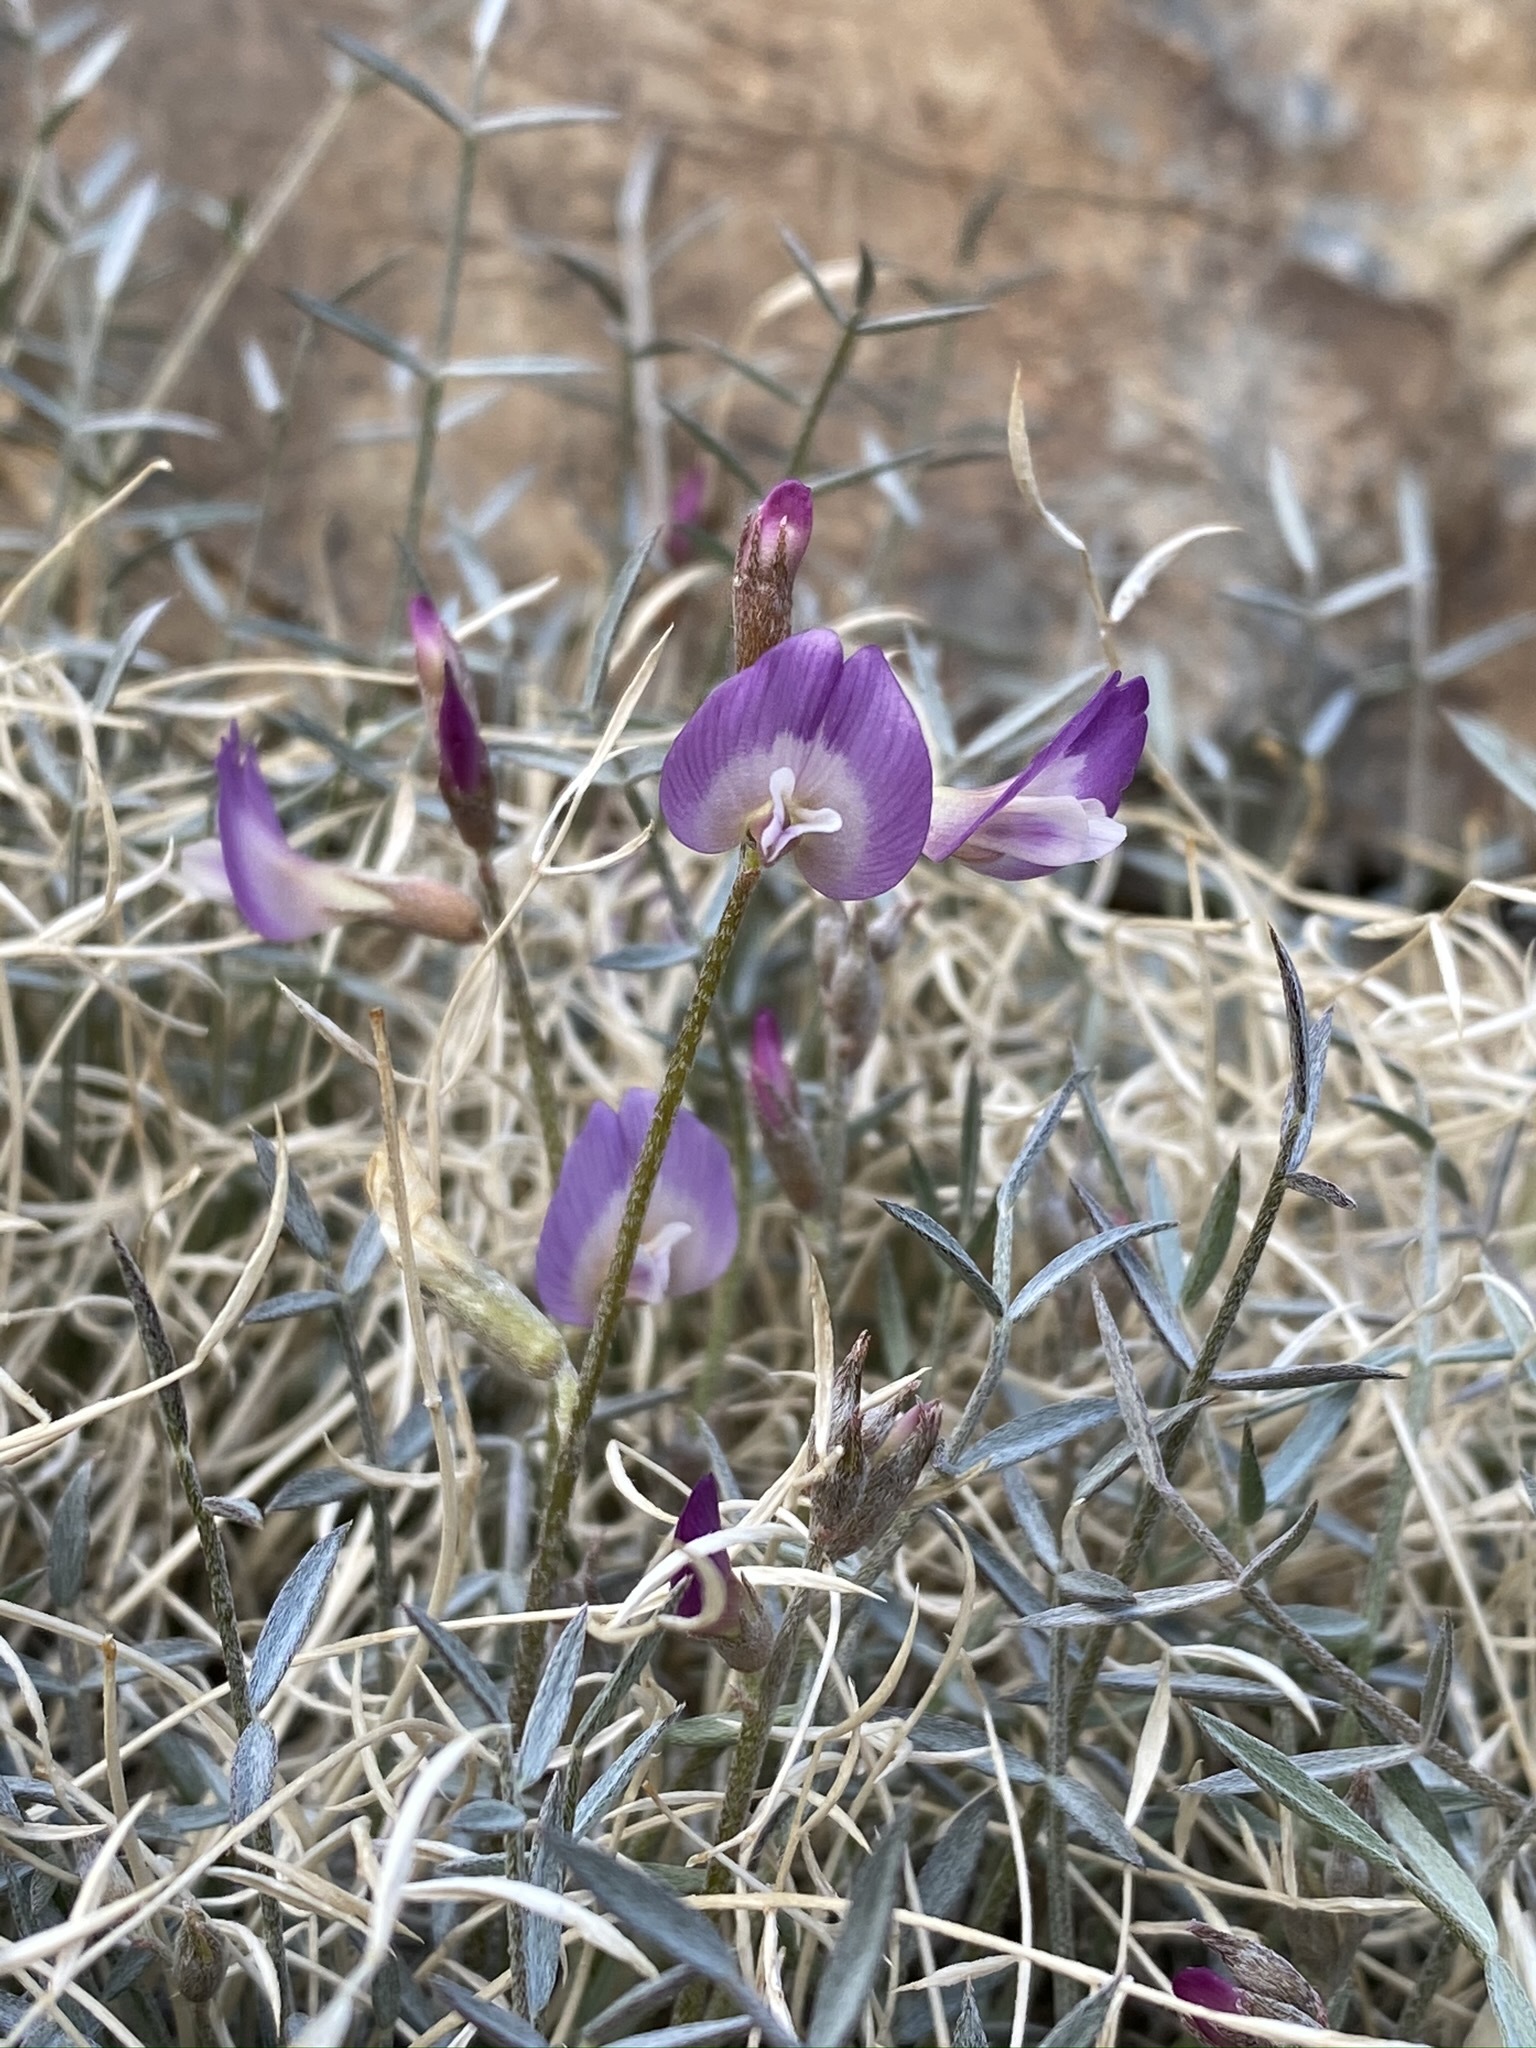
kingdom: Plantae
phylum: Tracheophyta
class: Magnoliopsida
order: Fabales
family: Fabaceae
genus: Astragalus
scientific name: Astragalus panamintensis
